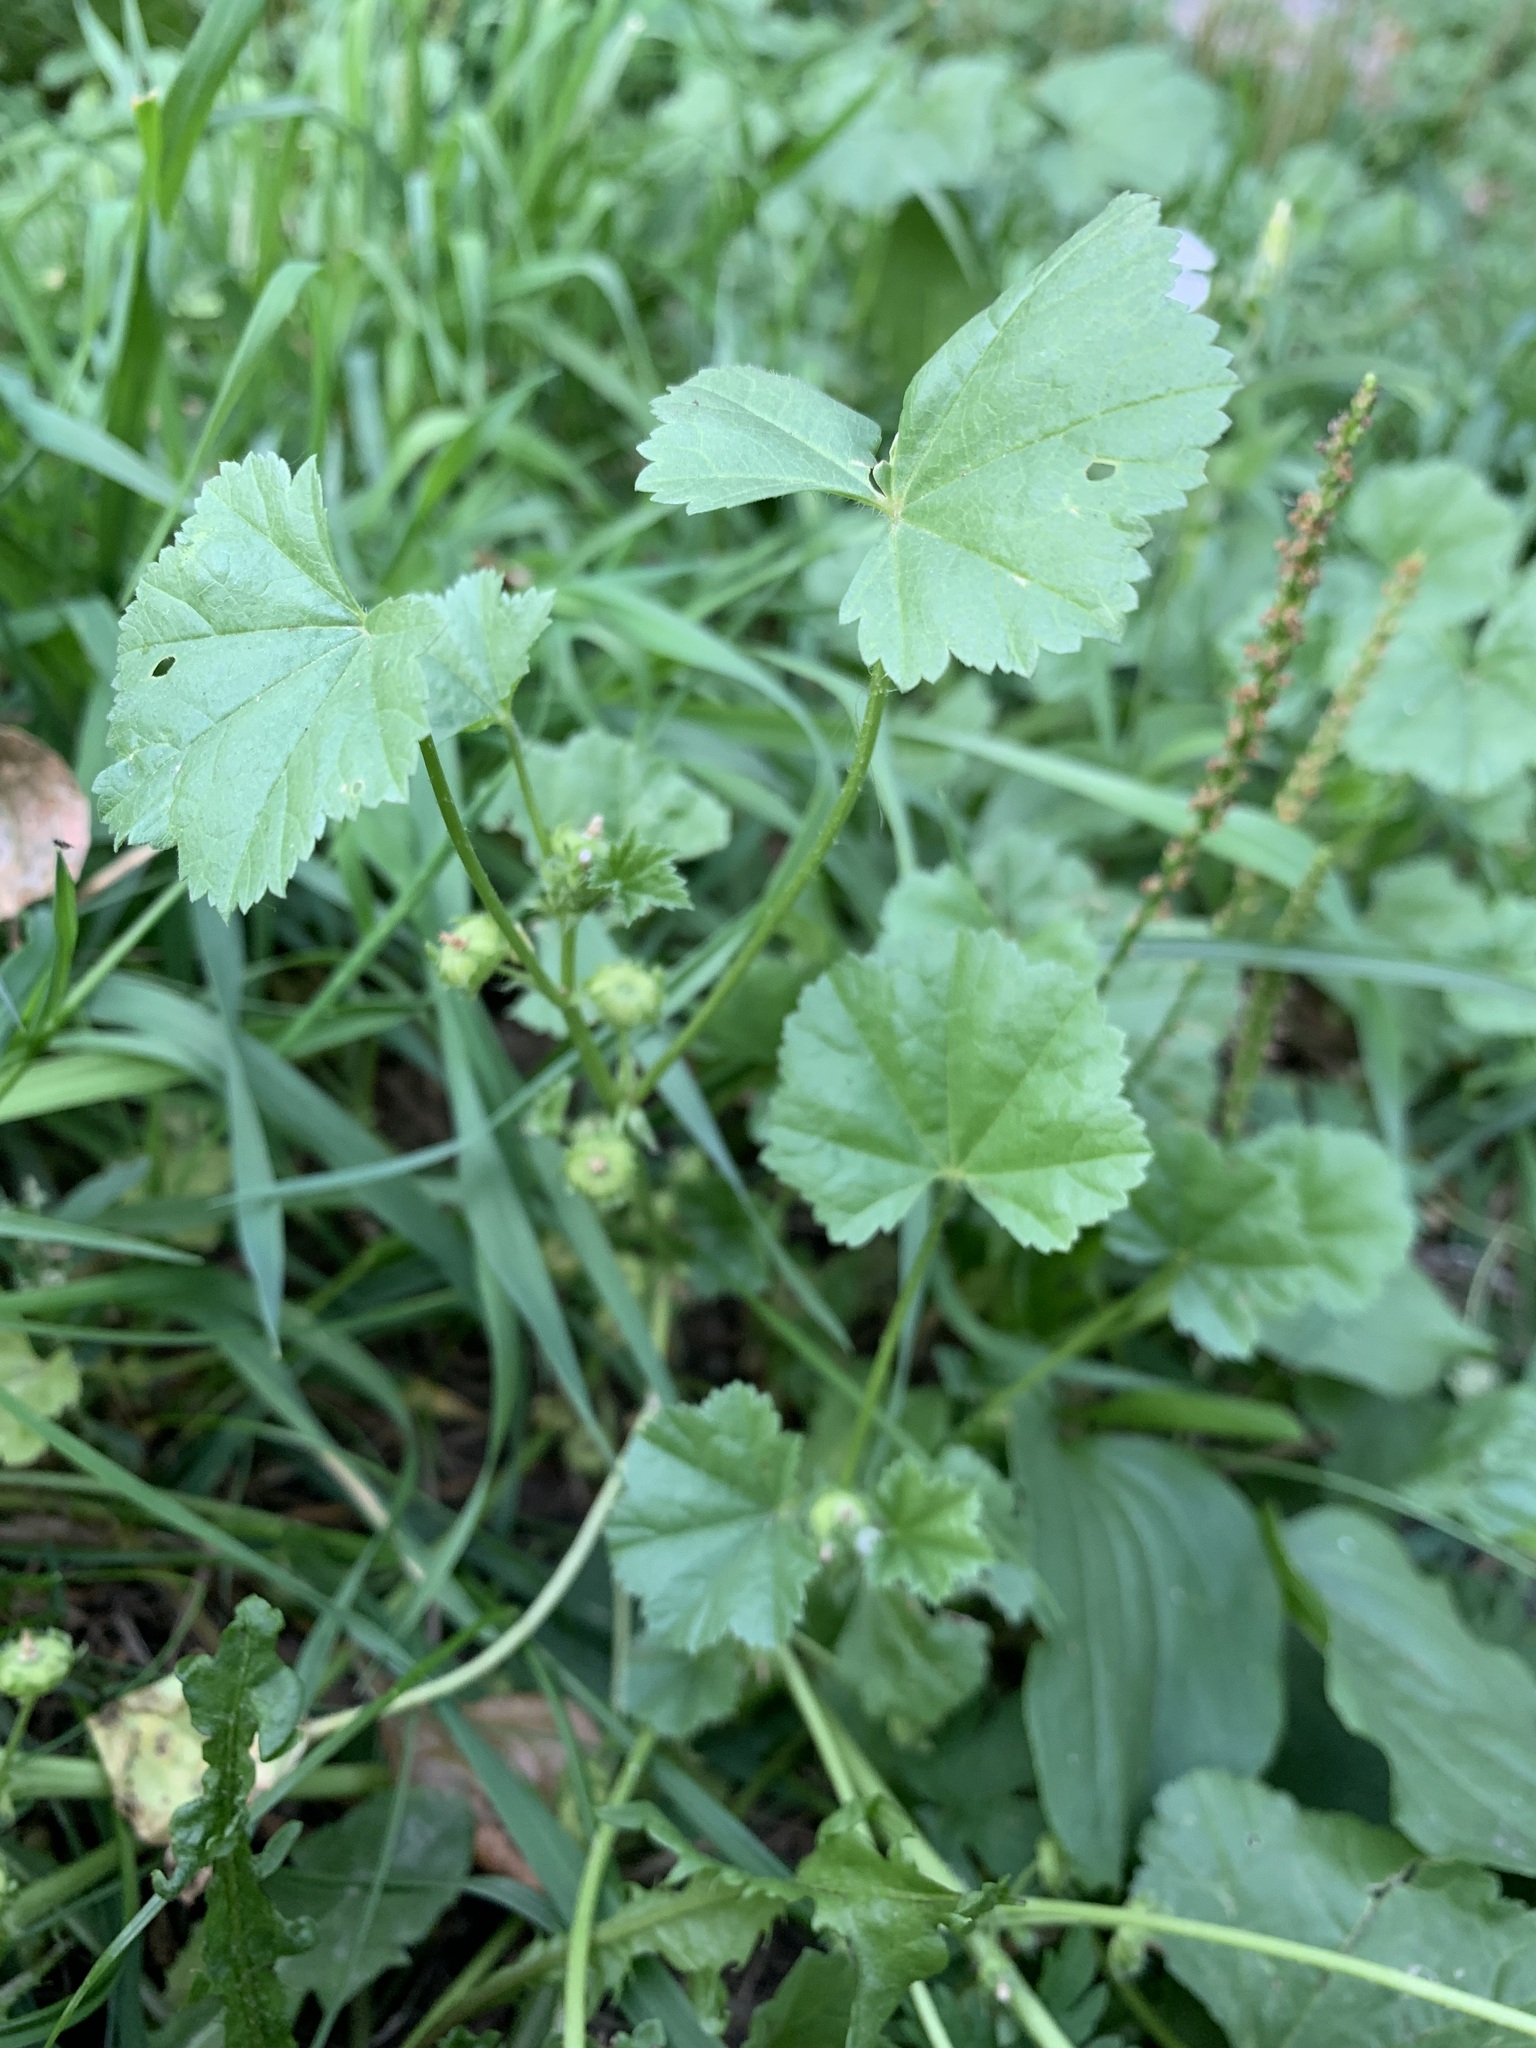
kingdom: Plantae
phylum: Tracheophyta
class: Magnoliopsida
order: Malvales
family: Malvaceae
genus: Malva
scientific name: Malva pusilla
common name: Small mallow
